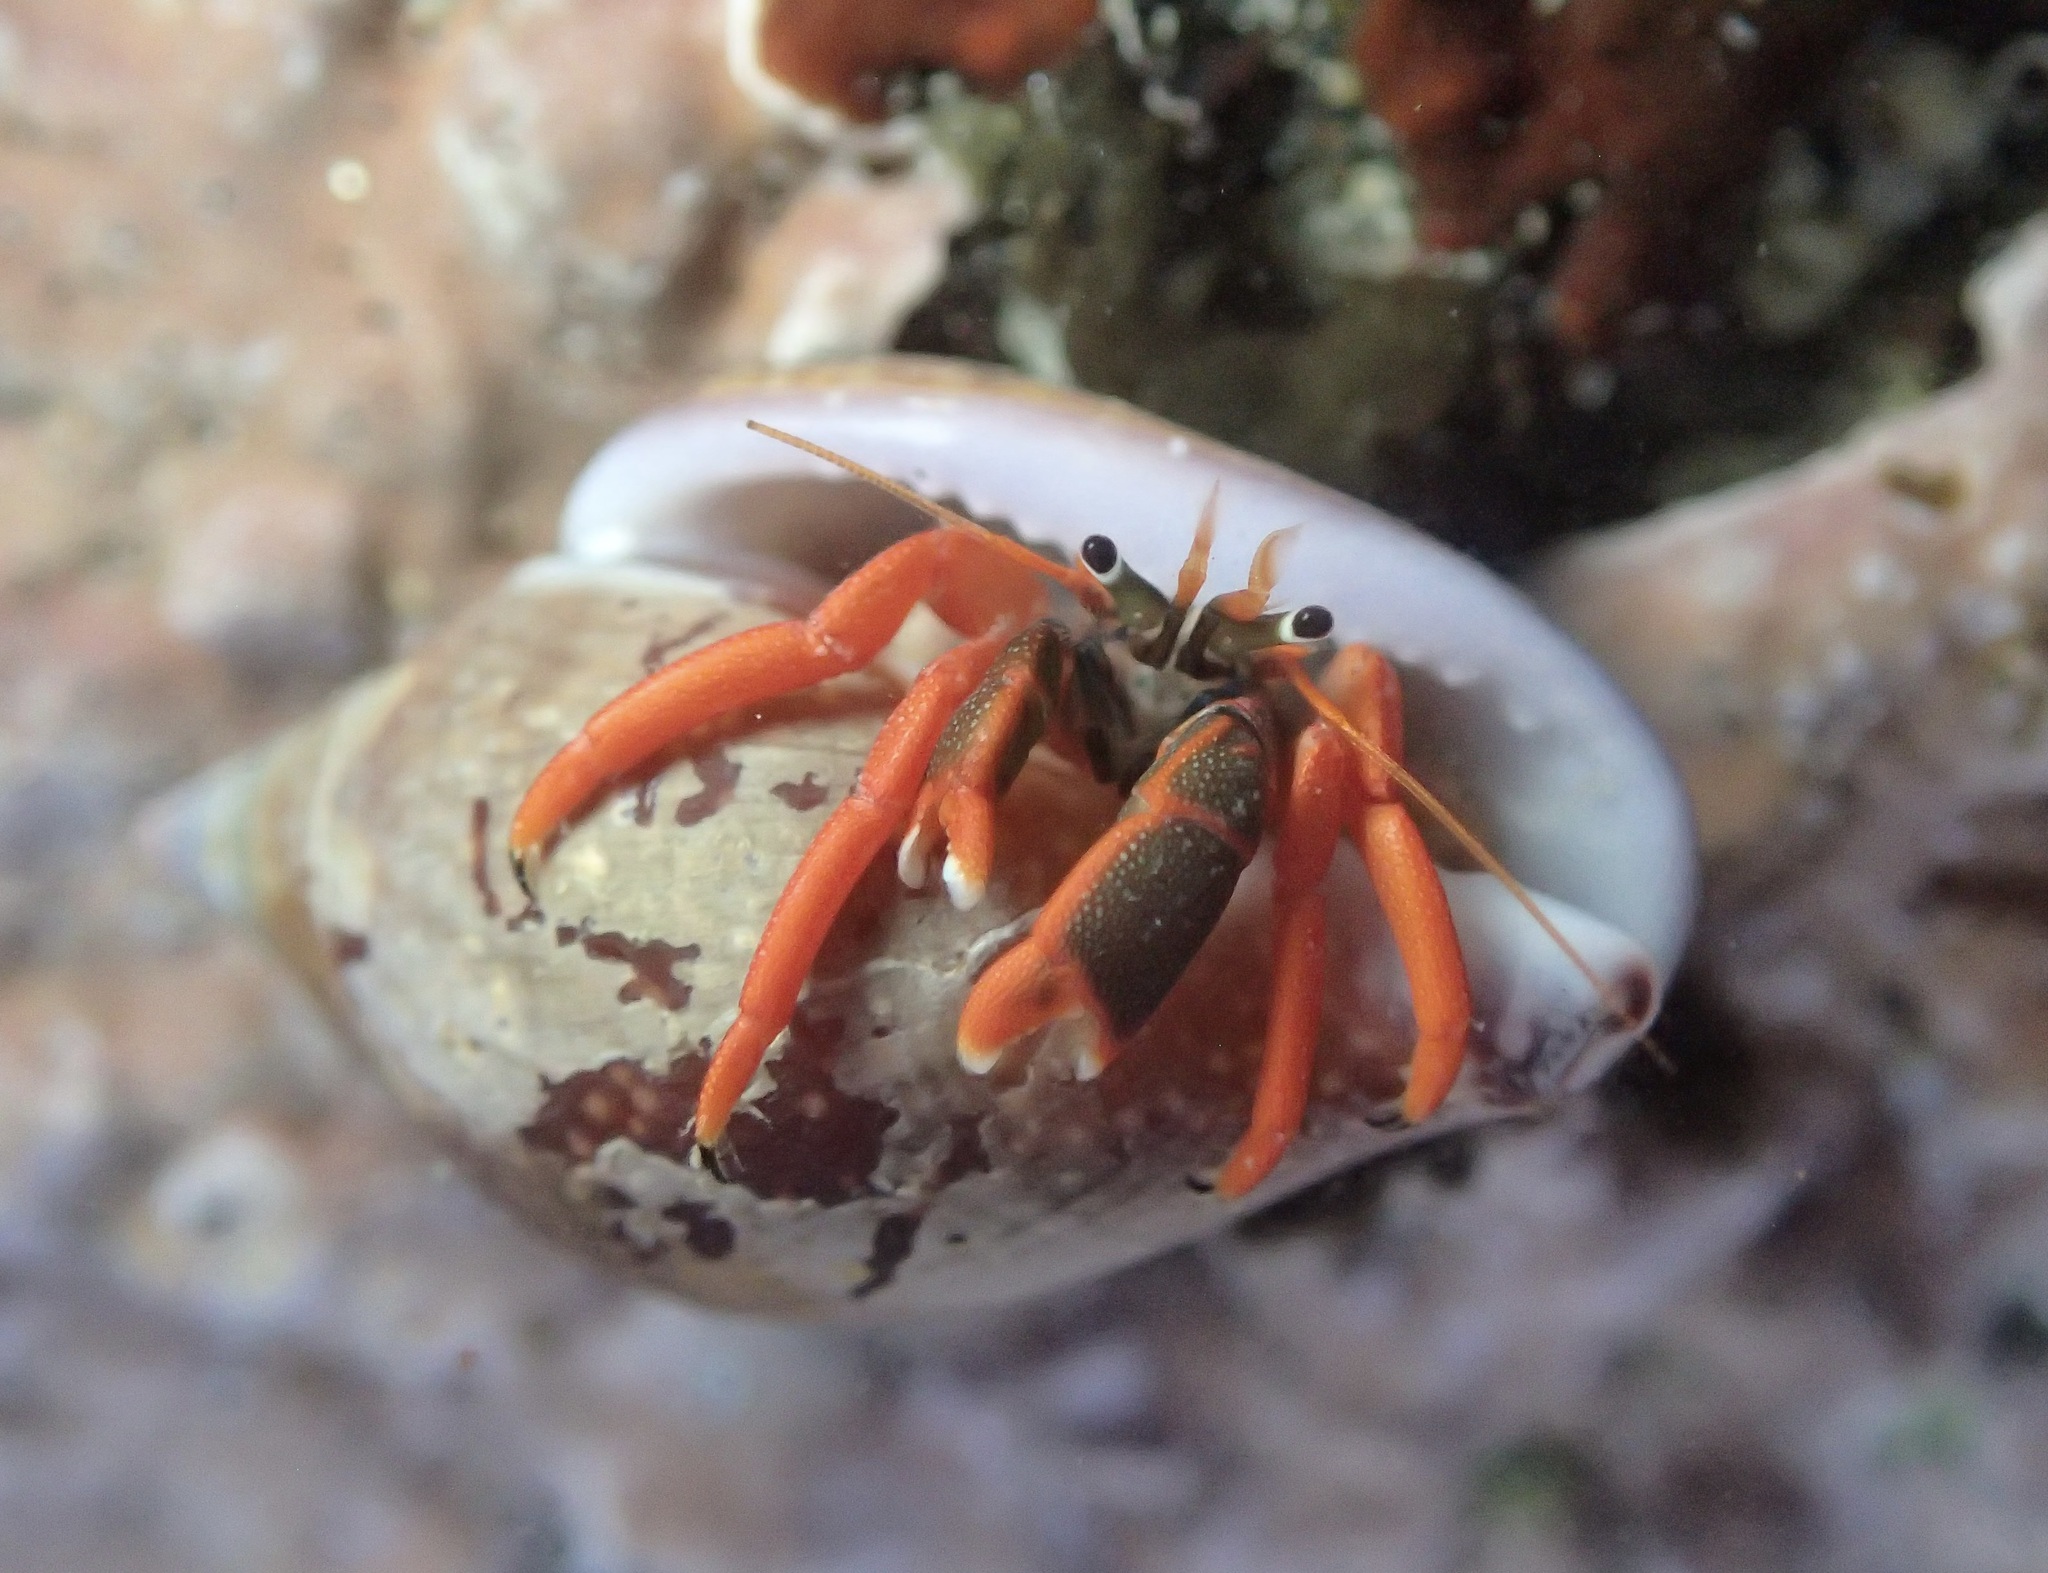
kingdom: Animalia
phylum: Arthropoda
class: Malacostraca
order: Decapoda
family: Diogenidae
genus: Calcinus
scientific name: Calcinus californiensis
